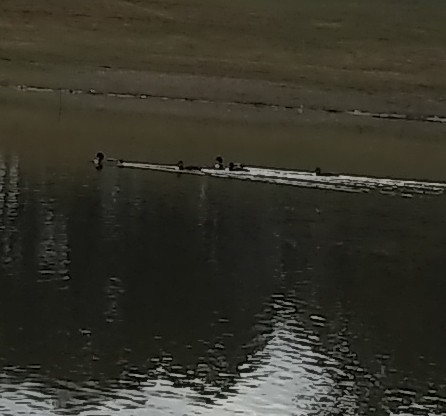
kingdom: Animalia
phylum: Chordata
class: Aves
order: Anseriformes
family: Anatidae
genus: Anas
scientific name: Anas platyrhynchos
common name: Mallard
